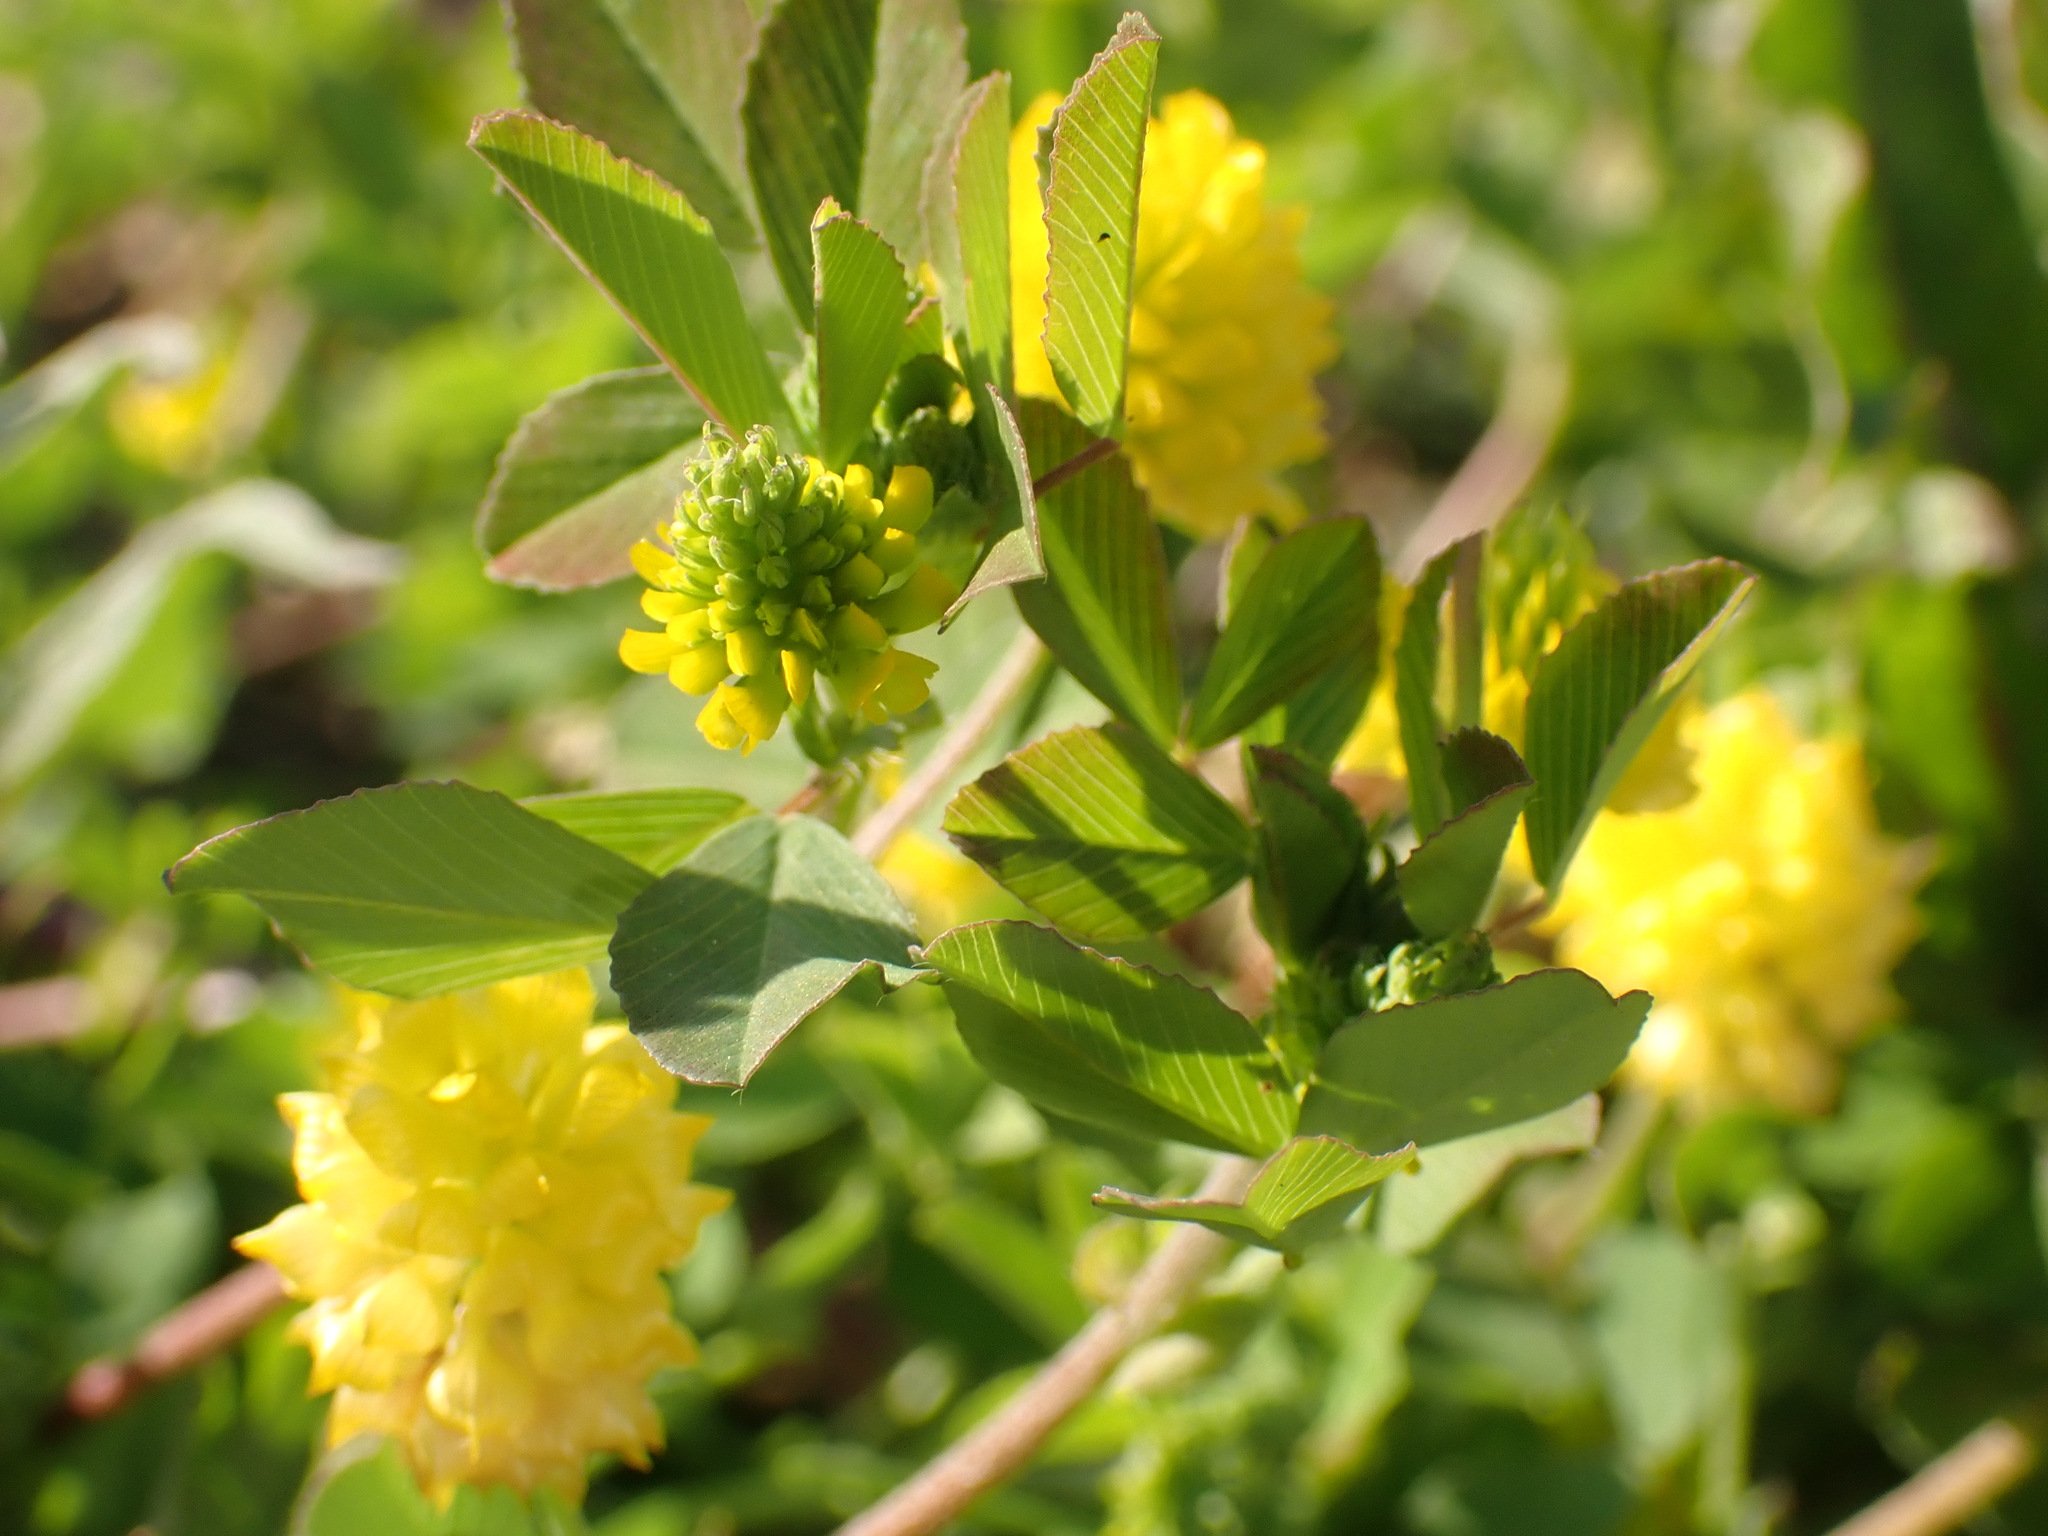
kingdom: Plantae
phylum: Tracheophyta
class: Magnoliopsida
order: Fabales
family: Fabaceae
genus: Trifolium
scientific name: Trifolium campestre
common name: Field clover
